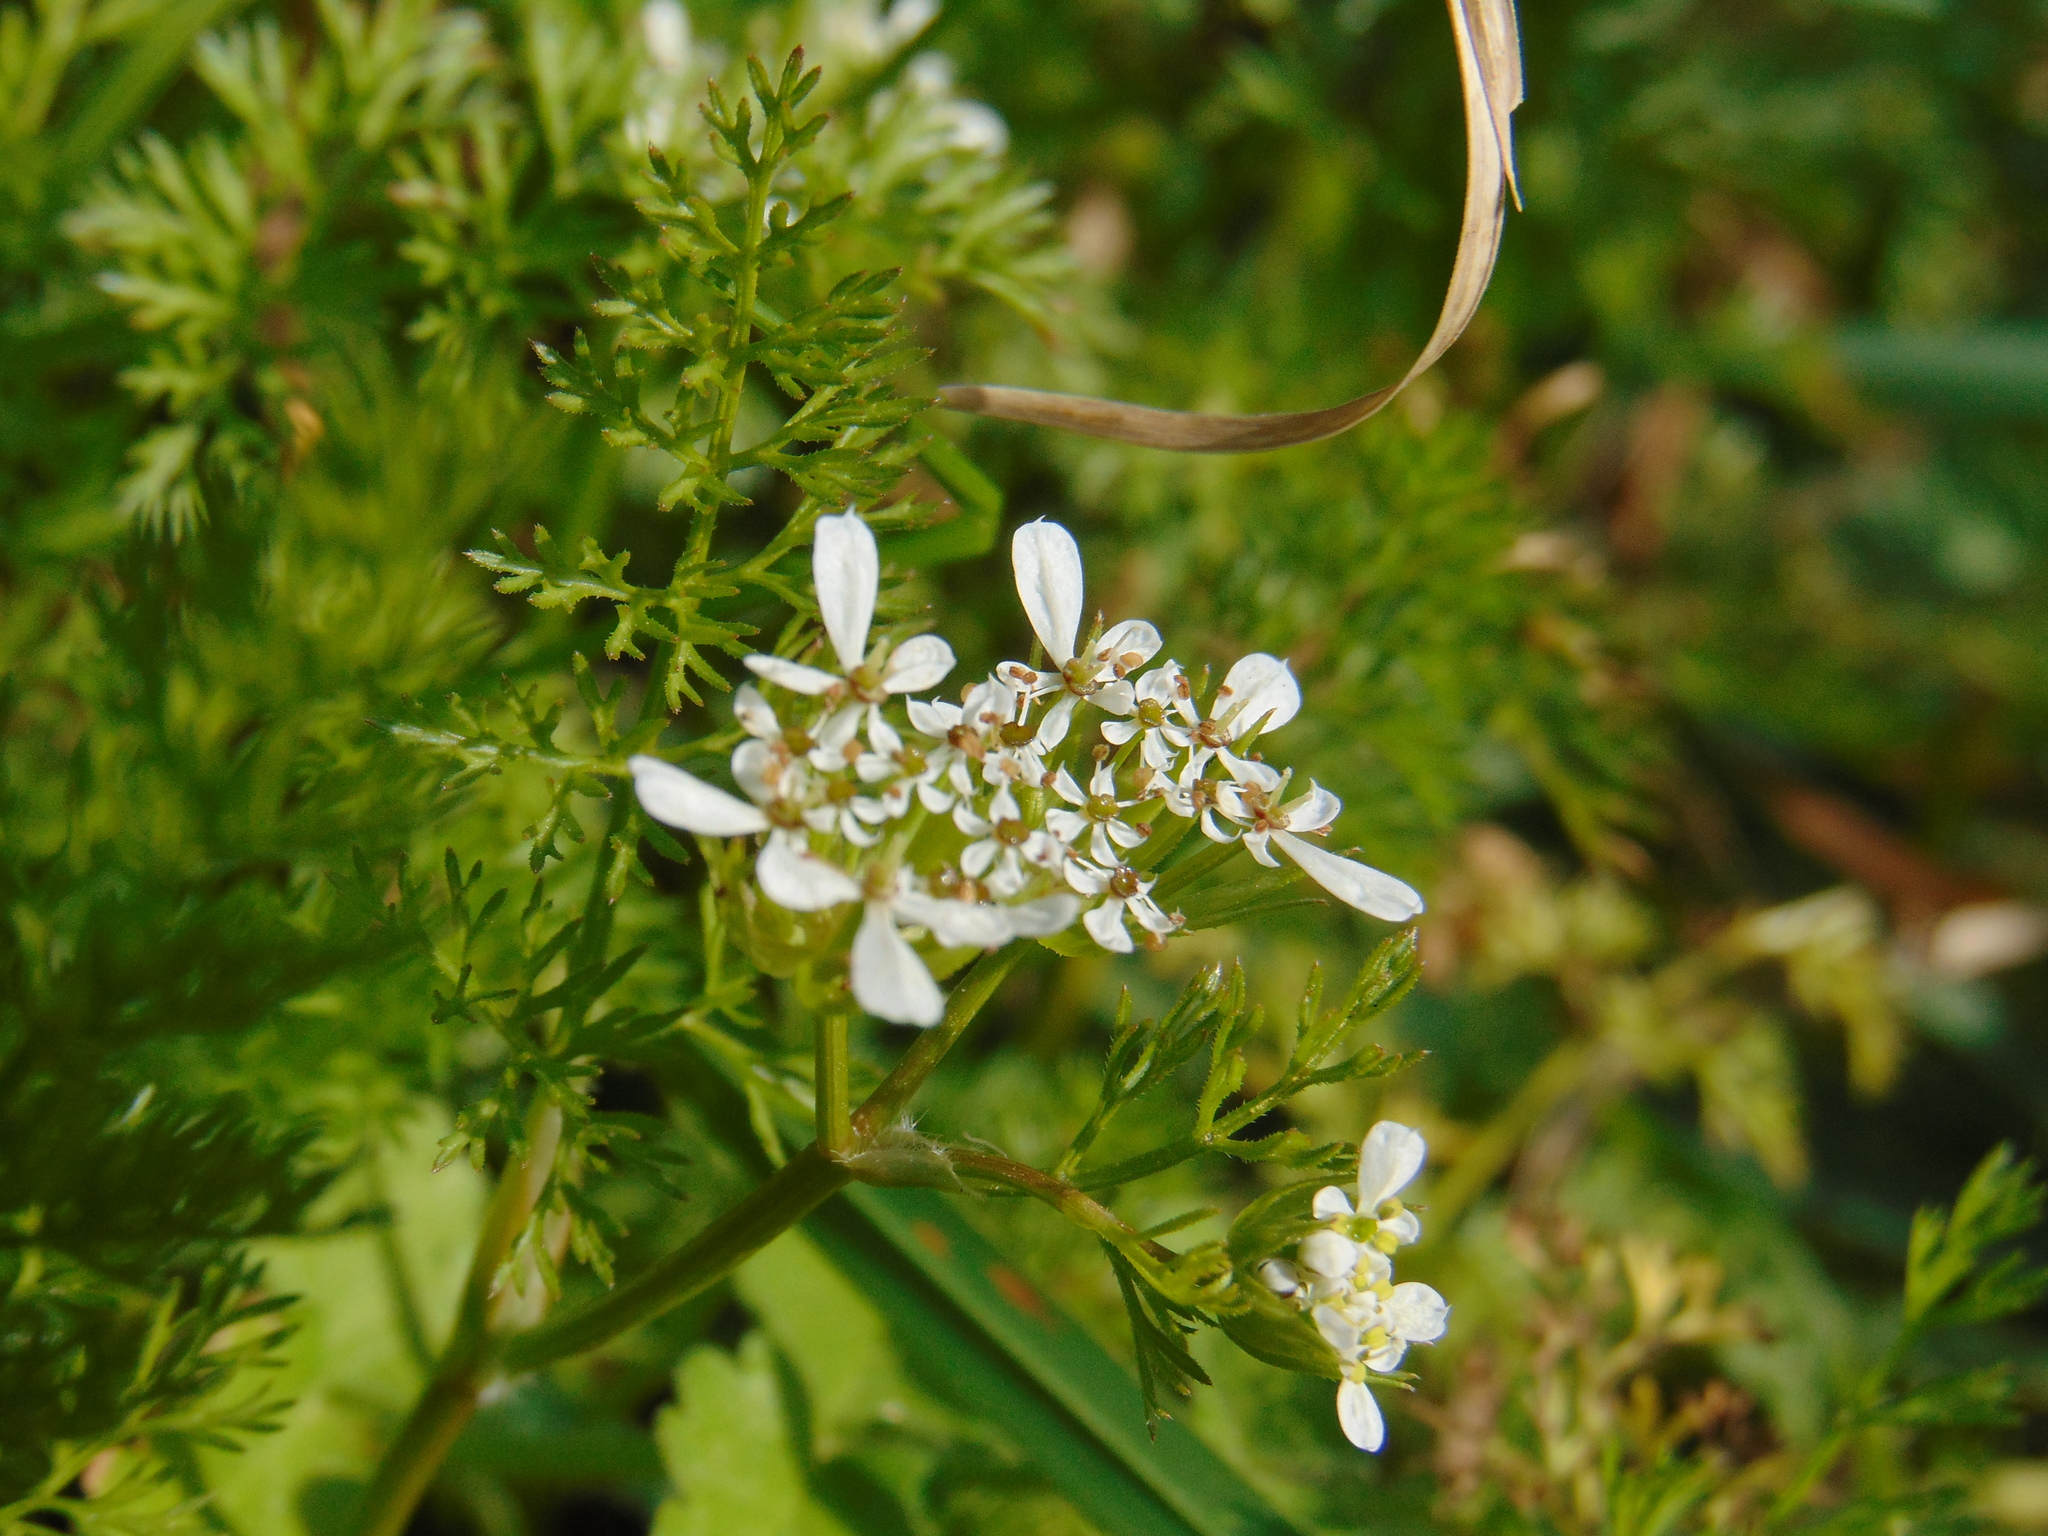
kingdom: Plantae
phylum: Tracheophyta
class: Magnoliopsida
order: Apiales
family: Apiaceae
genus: Scandix
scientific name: Scandix pecten-veneris
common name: Shepherd's-needle
